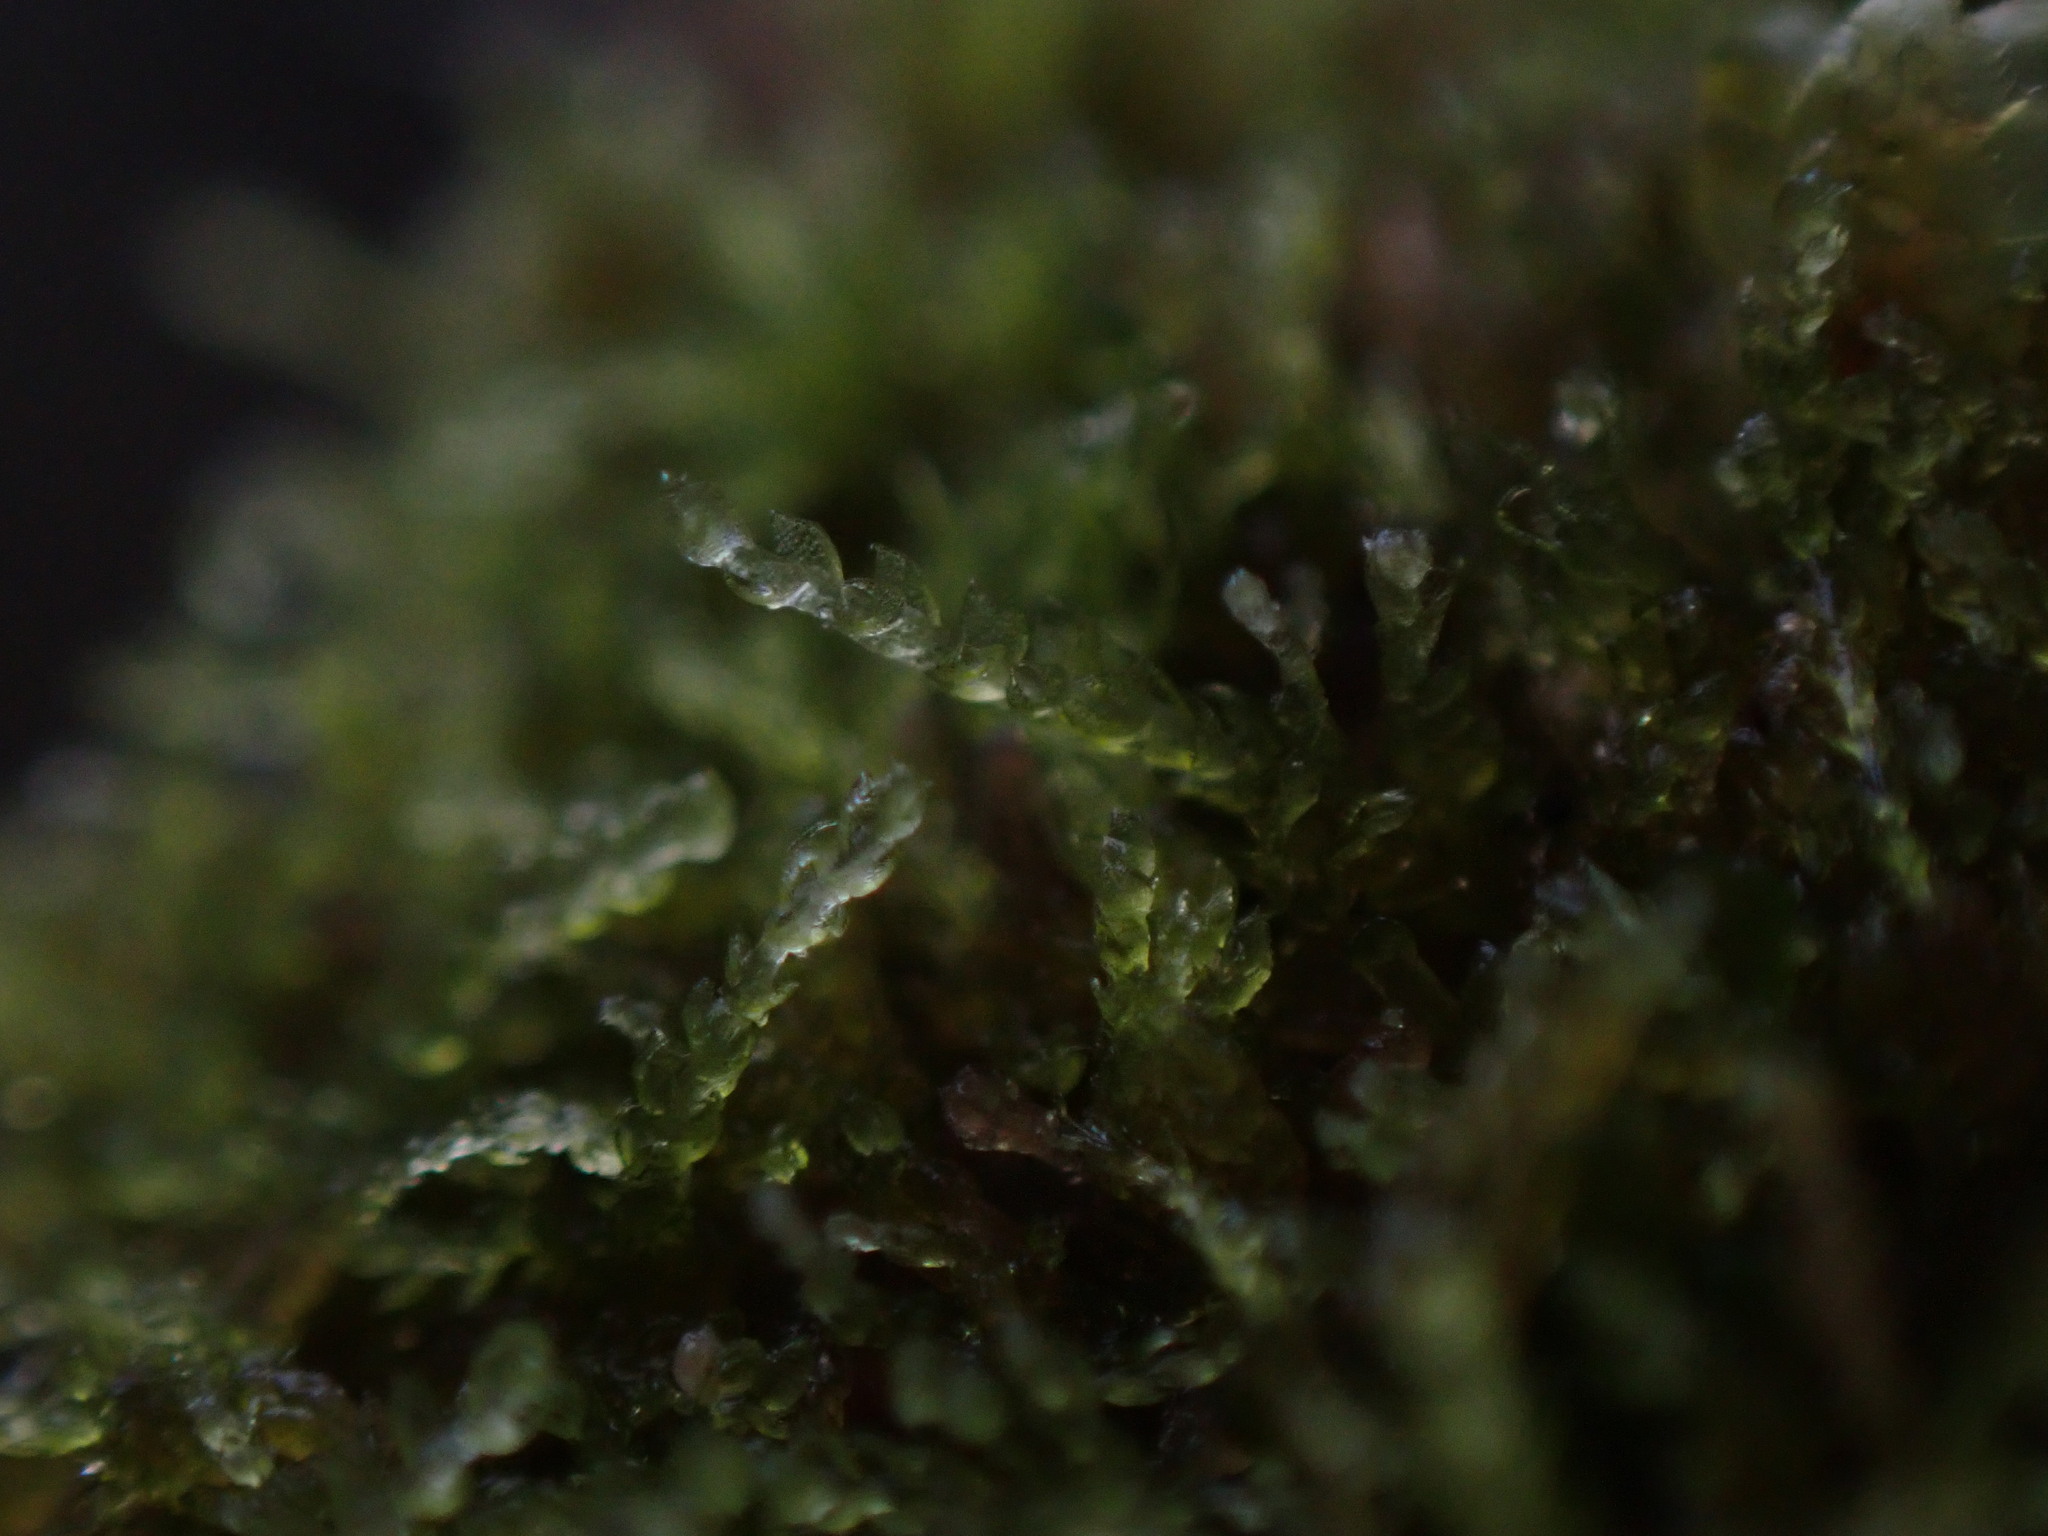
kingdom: Plantae
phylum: Marchantiophyta
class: Jungermanniopsida
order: Jungermanniales
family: Cephaloziaceae
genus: Cephalozia
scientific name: Cephalozia bicuspidata
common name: Two-horned pincerwort
